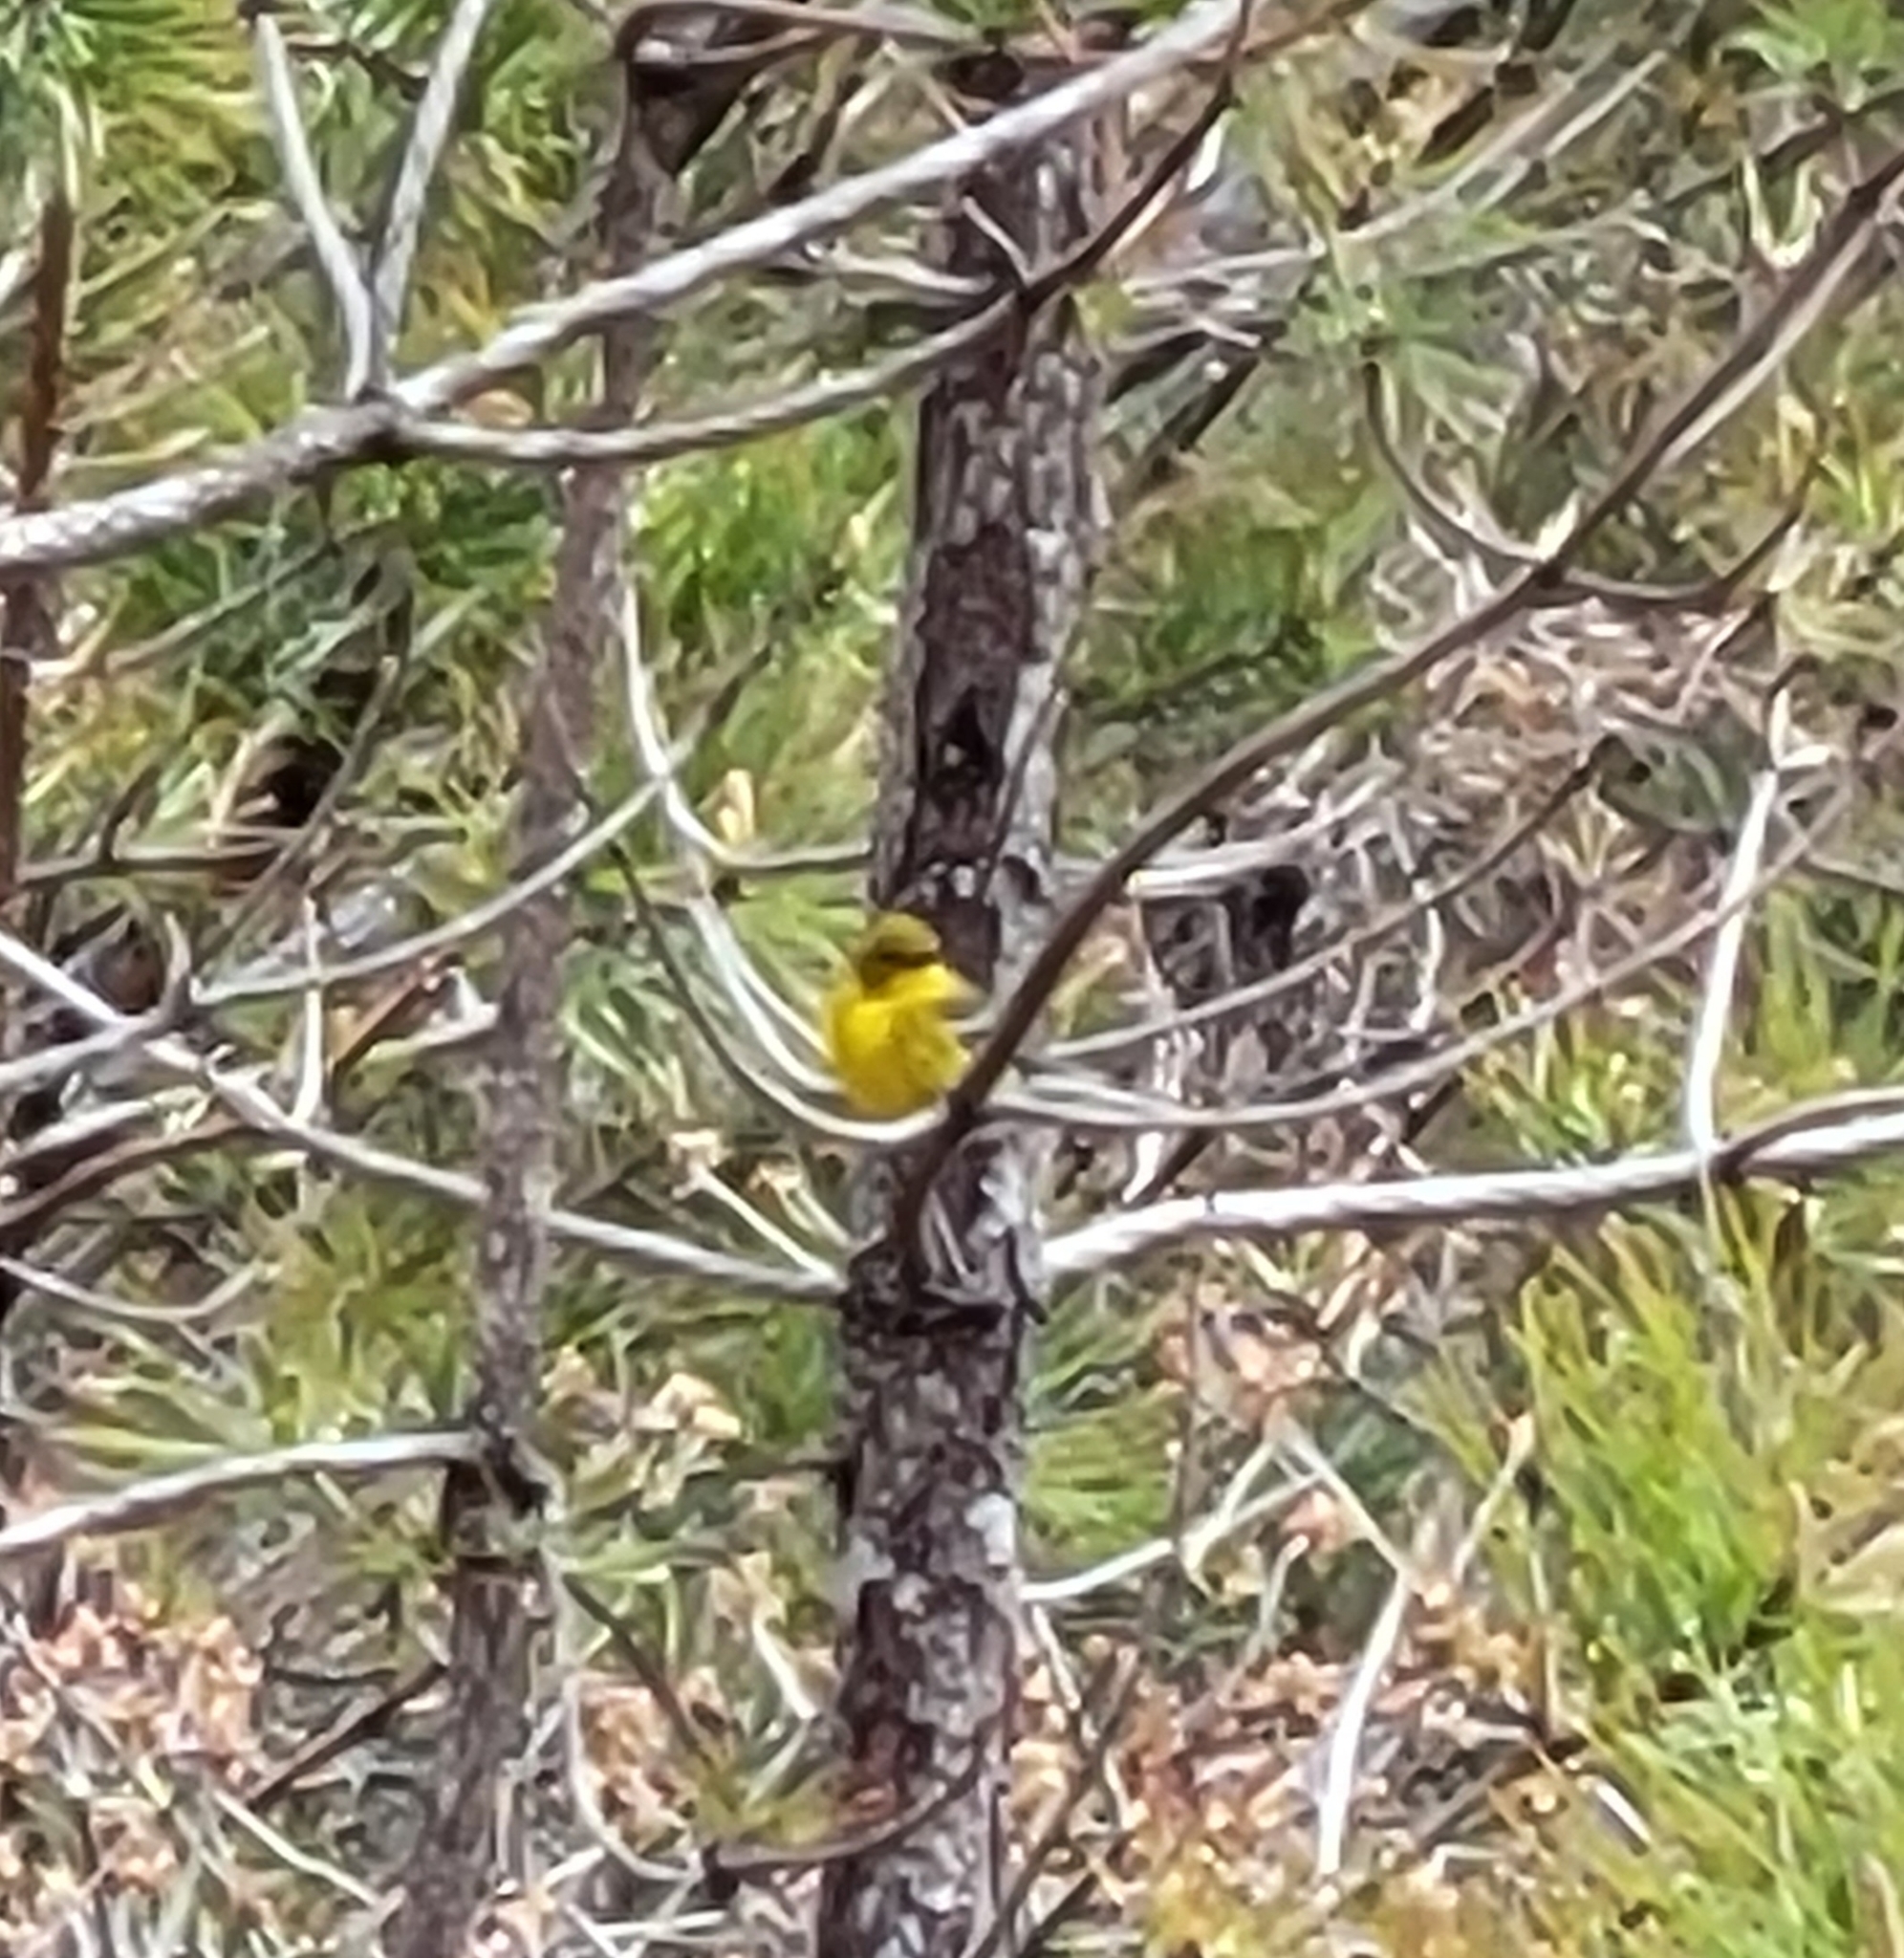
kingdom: Animalia
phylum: Chordata
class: Aves
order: Passeriformes
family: Parulidae
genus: Setophaga
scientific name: Setophaga pinus
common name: Pine warbler
